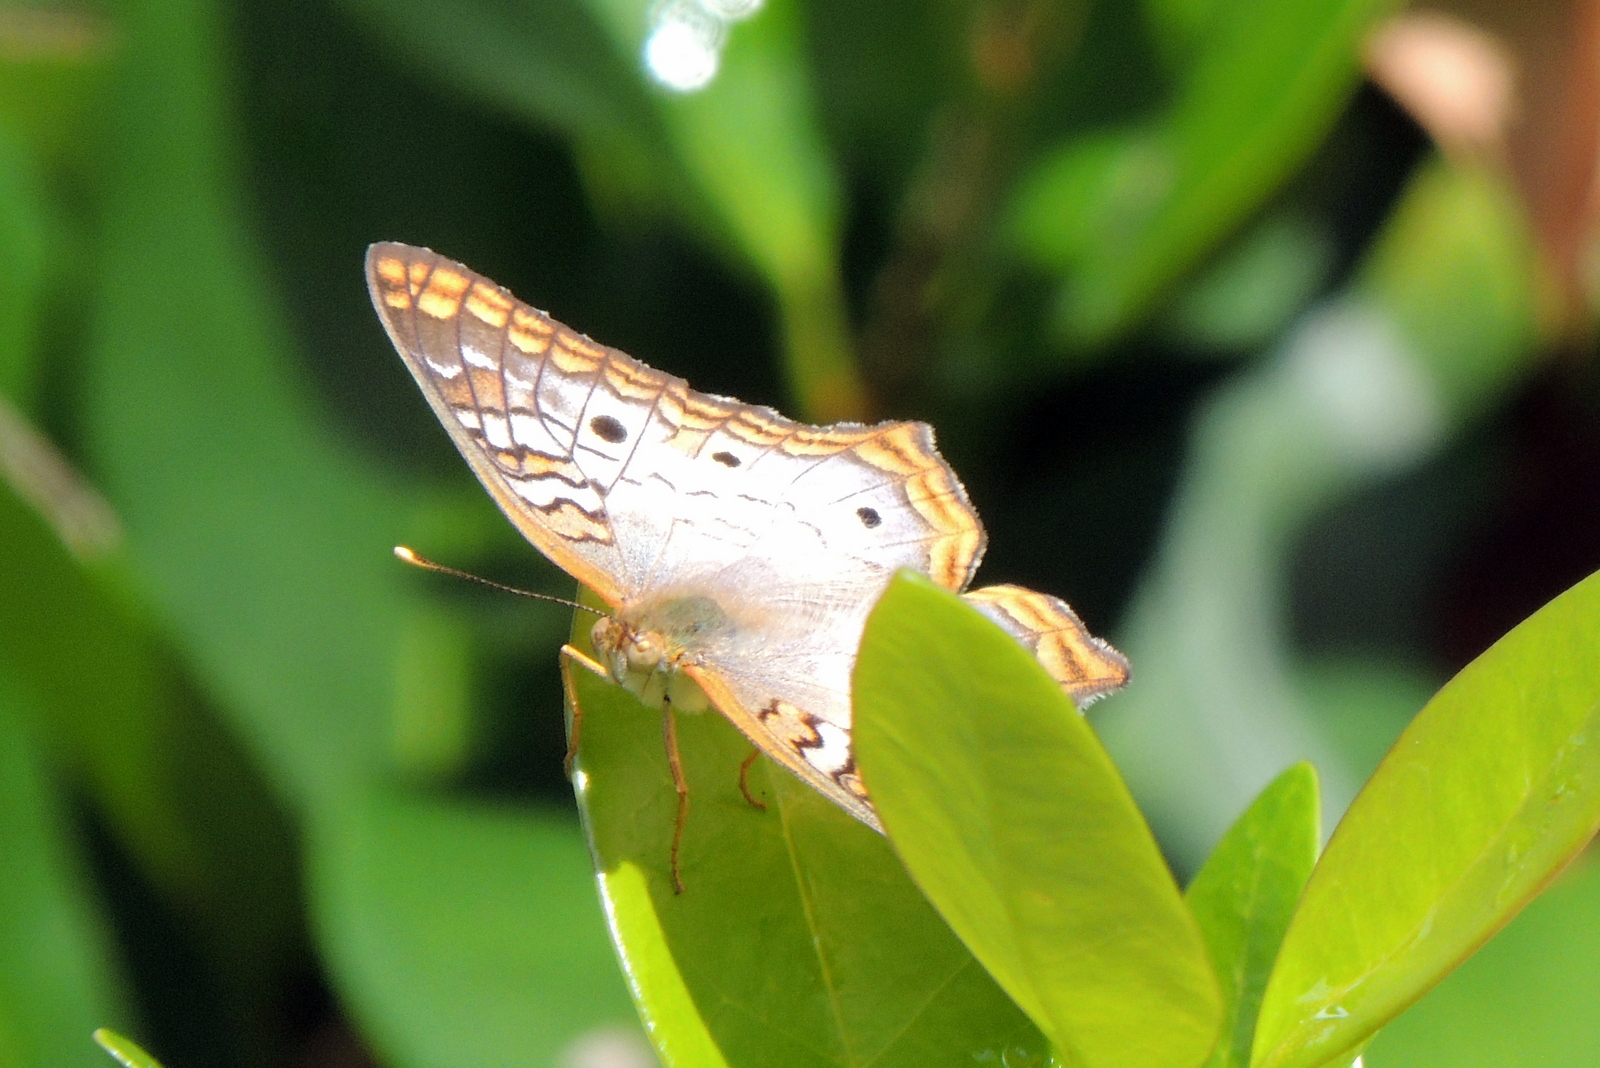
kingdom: Animalia
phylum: Arthropoda
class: Insecta
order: Lepidoptera
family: Nymphalidae
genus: Anartia
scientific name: Anartia jatrophae
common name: White peacock
